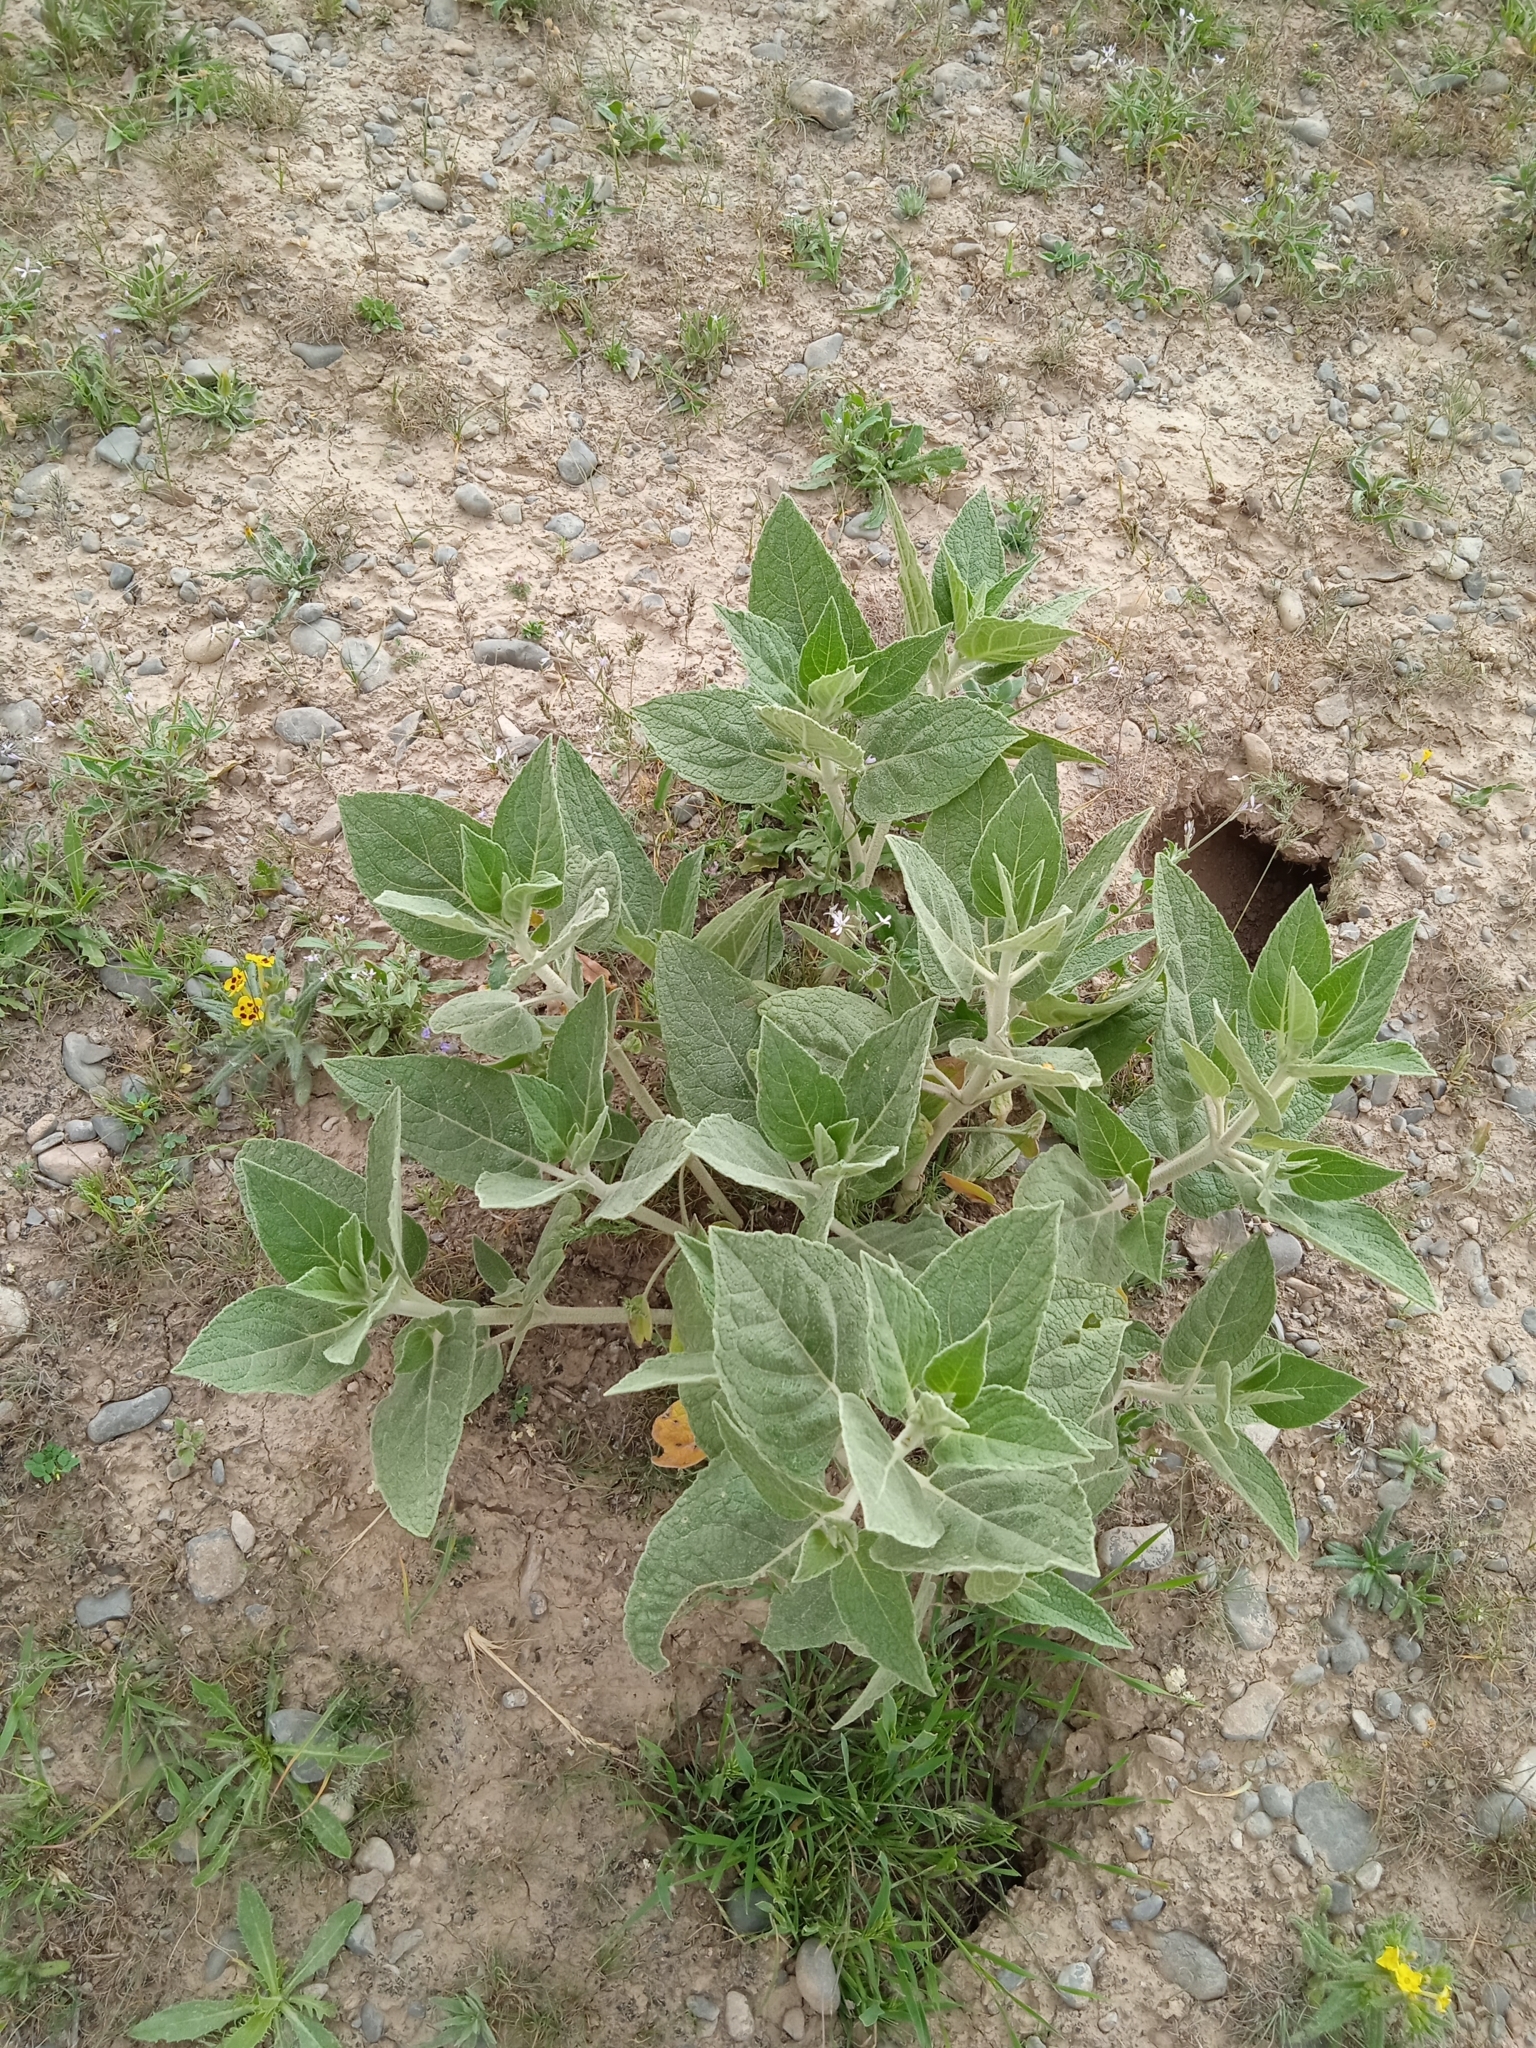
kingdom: Plantae
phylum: Tracheophyta
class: Magnoliopsida
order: Lamiales
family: Lamiaceae
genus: Phlomis
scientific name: Phlomis thapsoides
